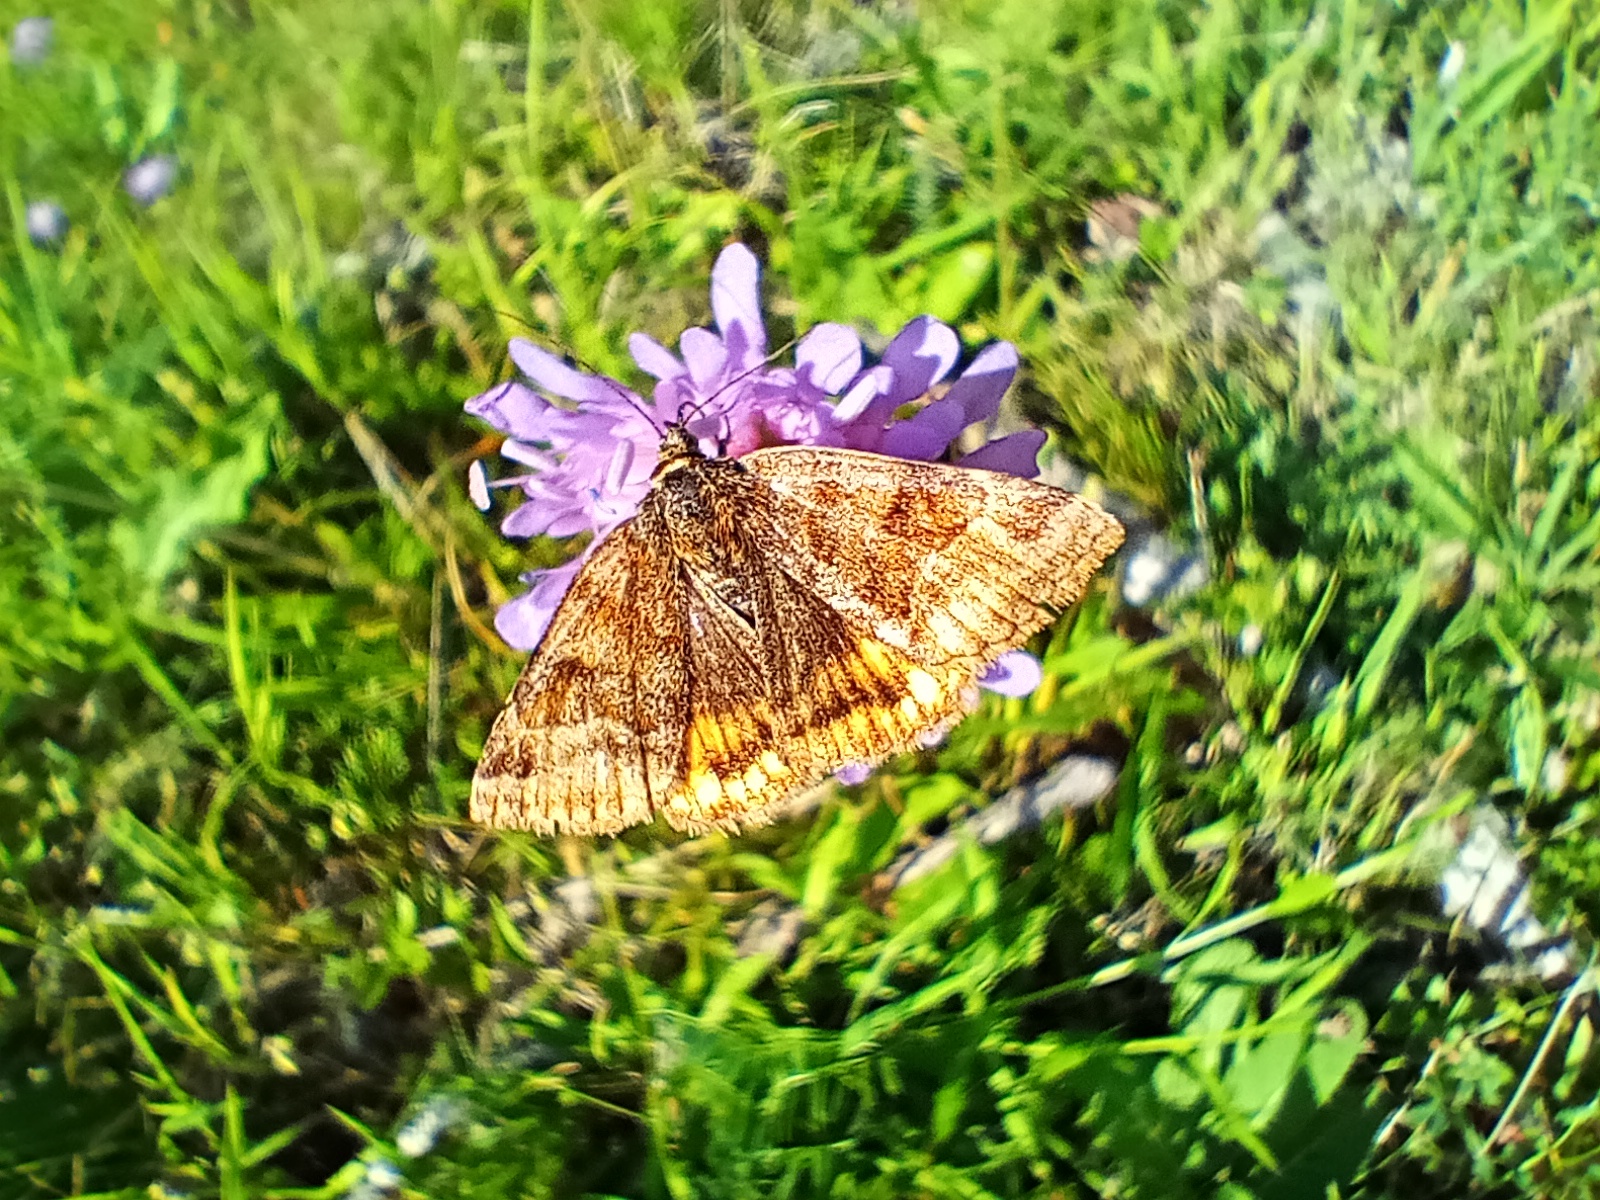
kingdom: Animalia
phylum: Arthropoda
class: Insecta
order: Lepidoptera
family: Erebidae
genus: Euclidia
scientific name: Euclidia glyphica
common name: Burnet companion
